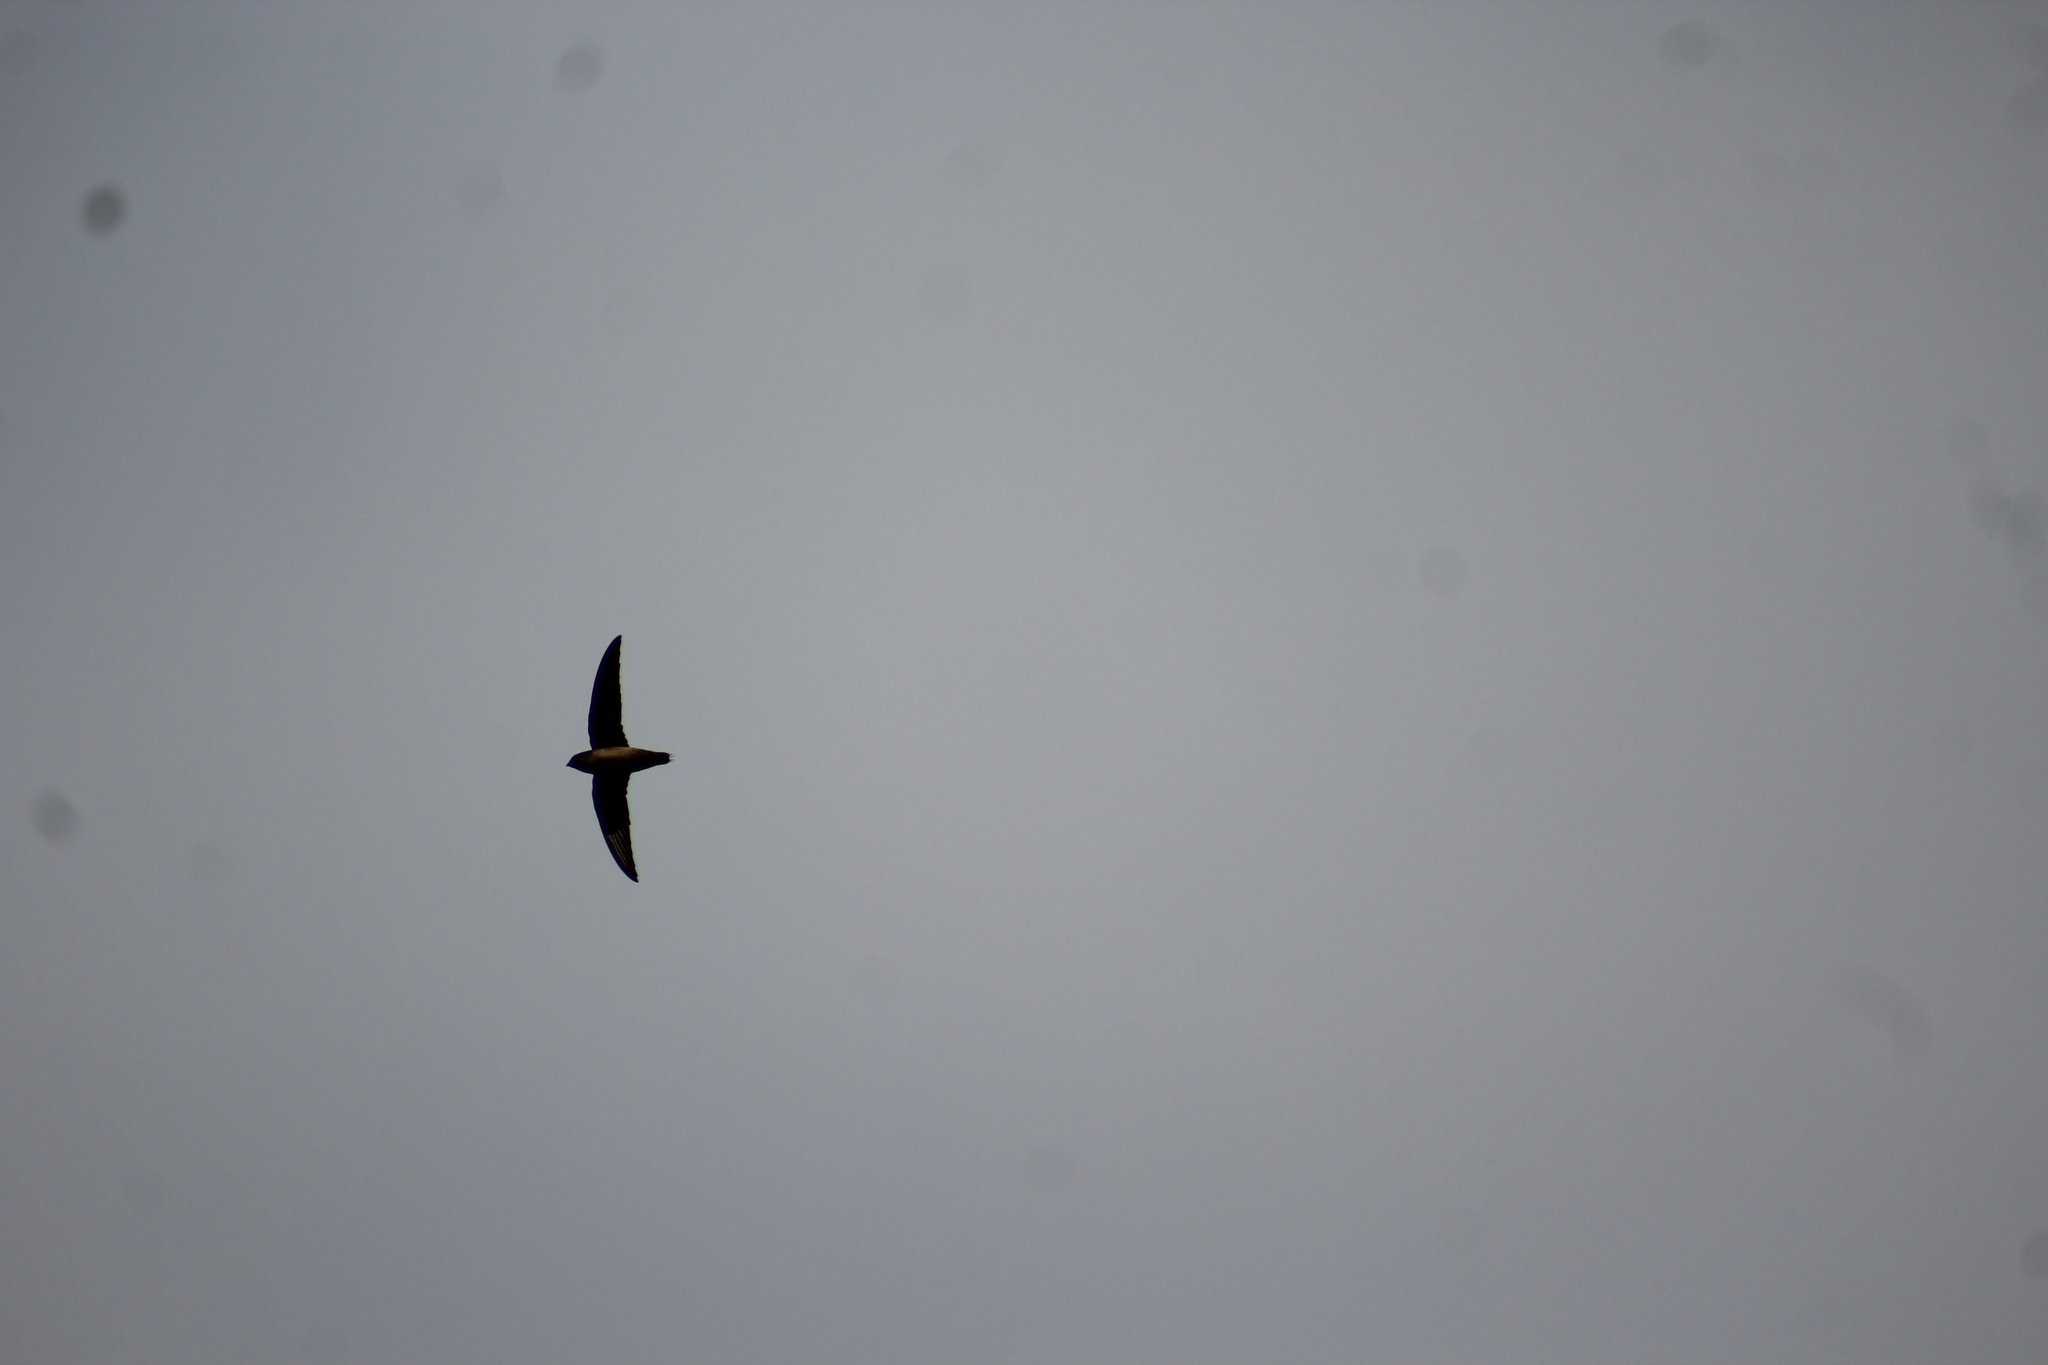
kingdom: Animalia
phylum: Chordata
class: Aves
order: Apodiformes
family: Apodidae
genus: Chaetura
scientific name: Chaetura vauxi
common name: Vaux's swift
